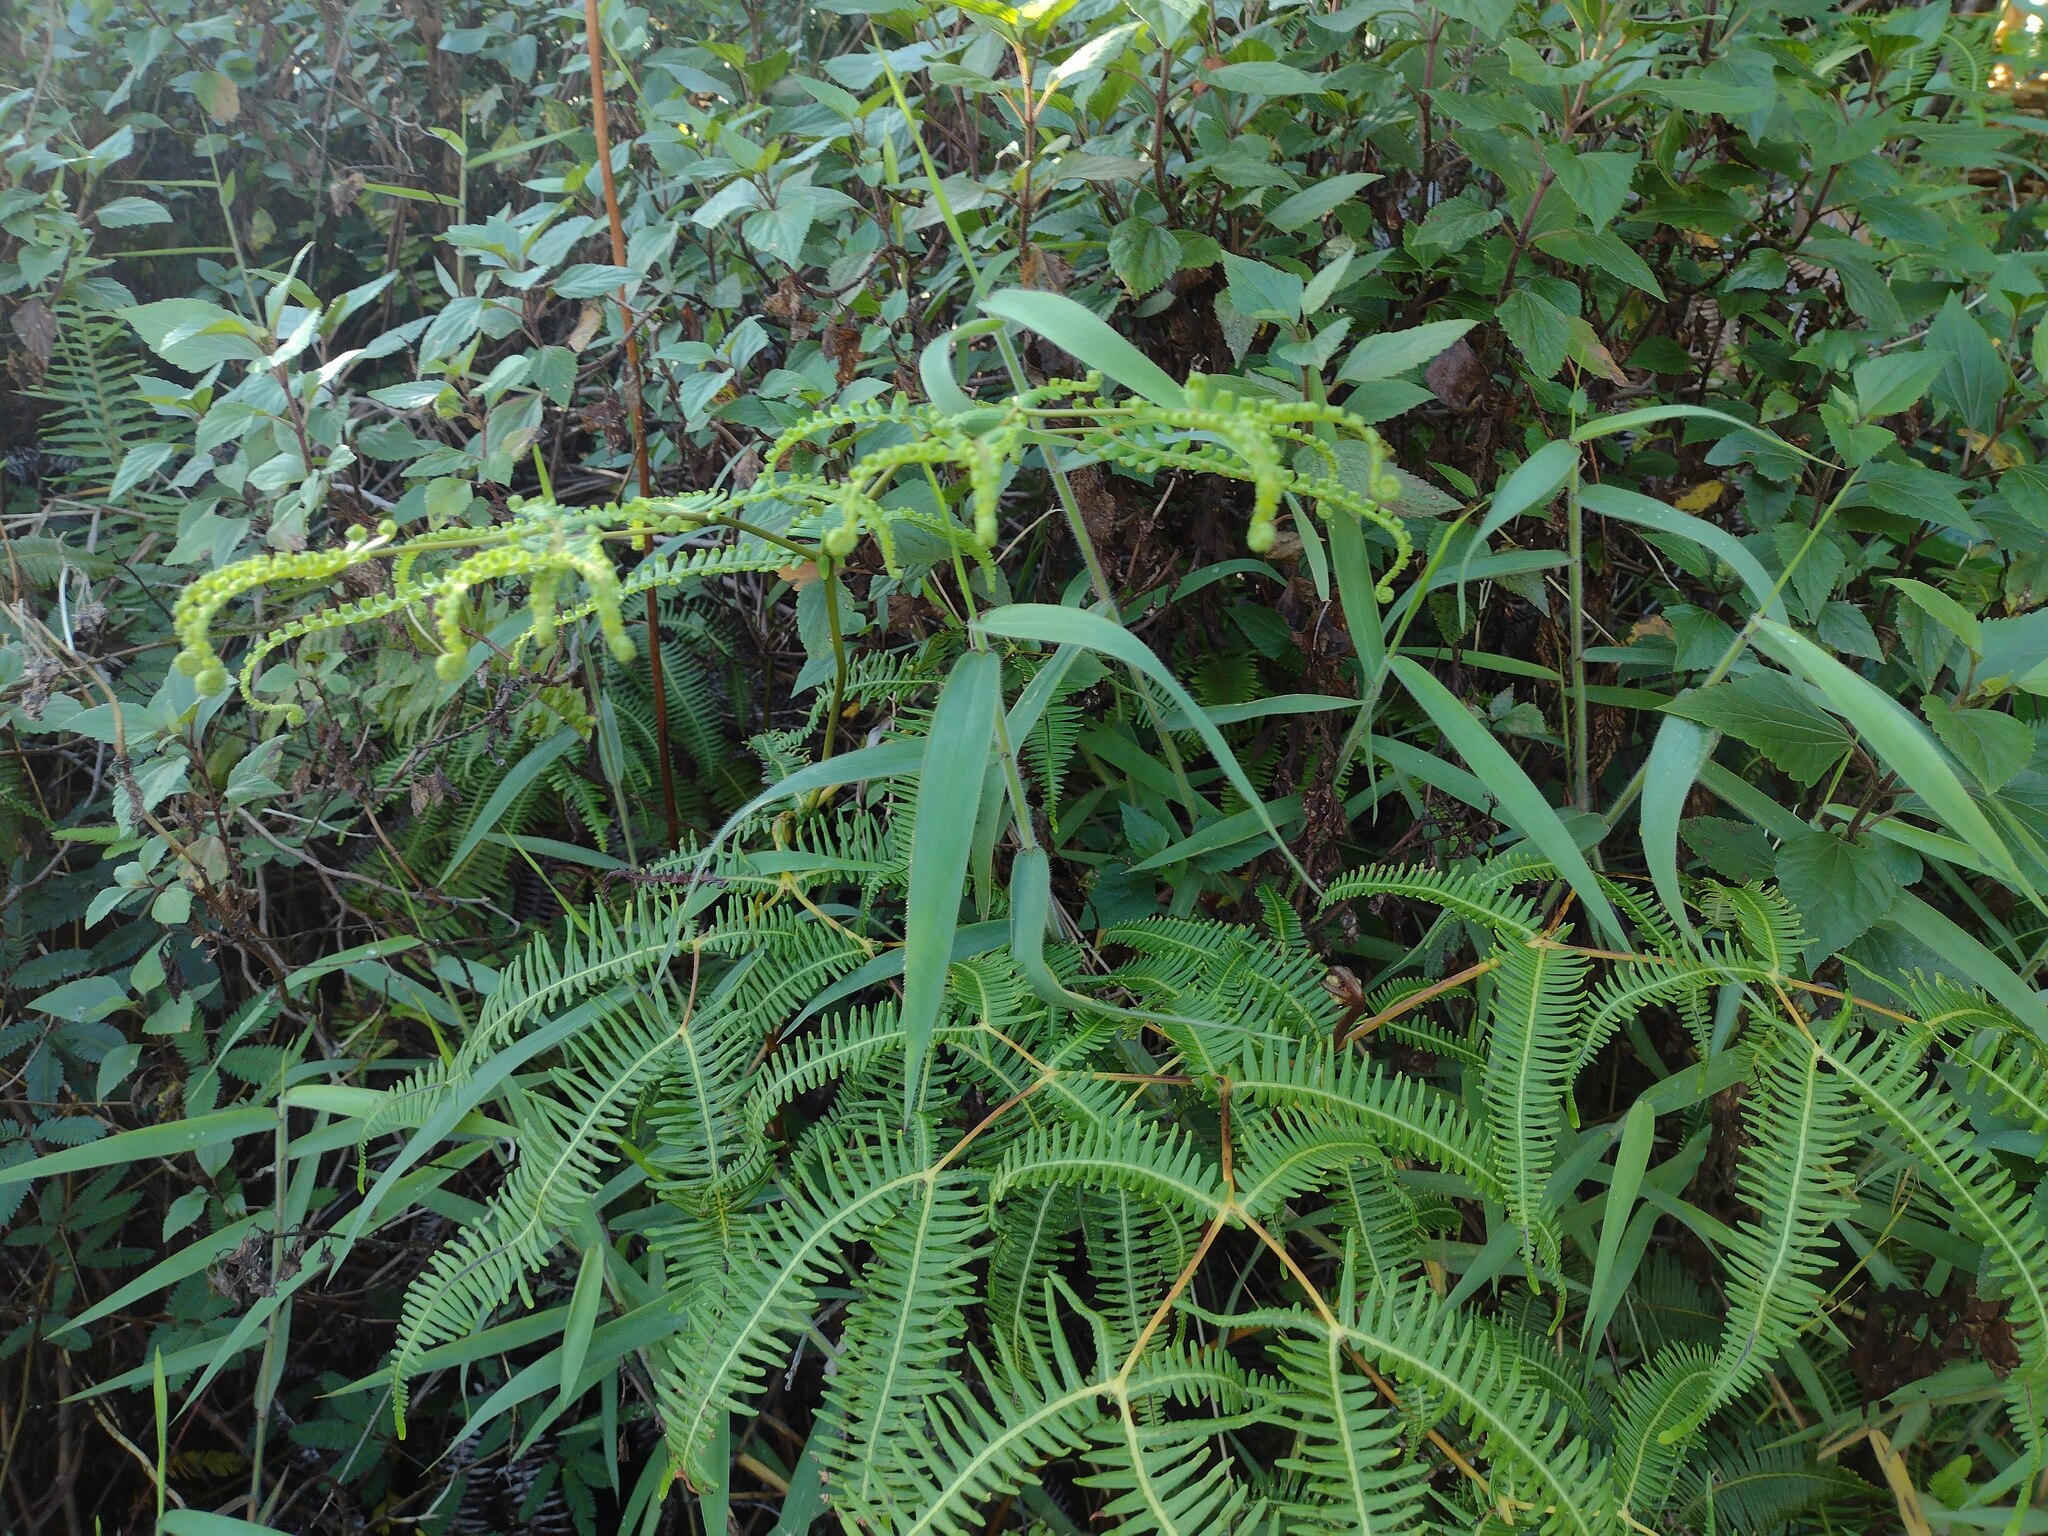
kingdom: Plantae
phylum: Tracheophyta
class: Polypodiopsida
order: Gleicheniales
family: Gleicheniaceae
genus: Dicranopteris
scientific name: Dicranopteris linearis
